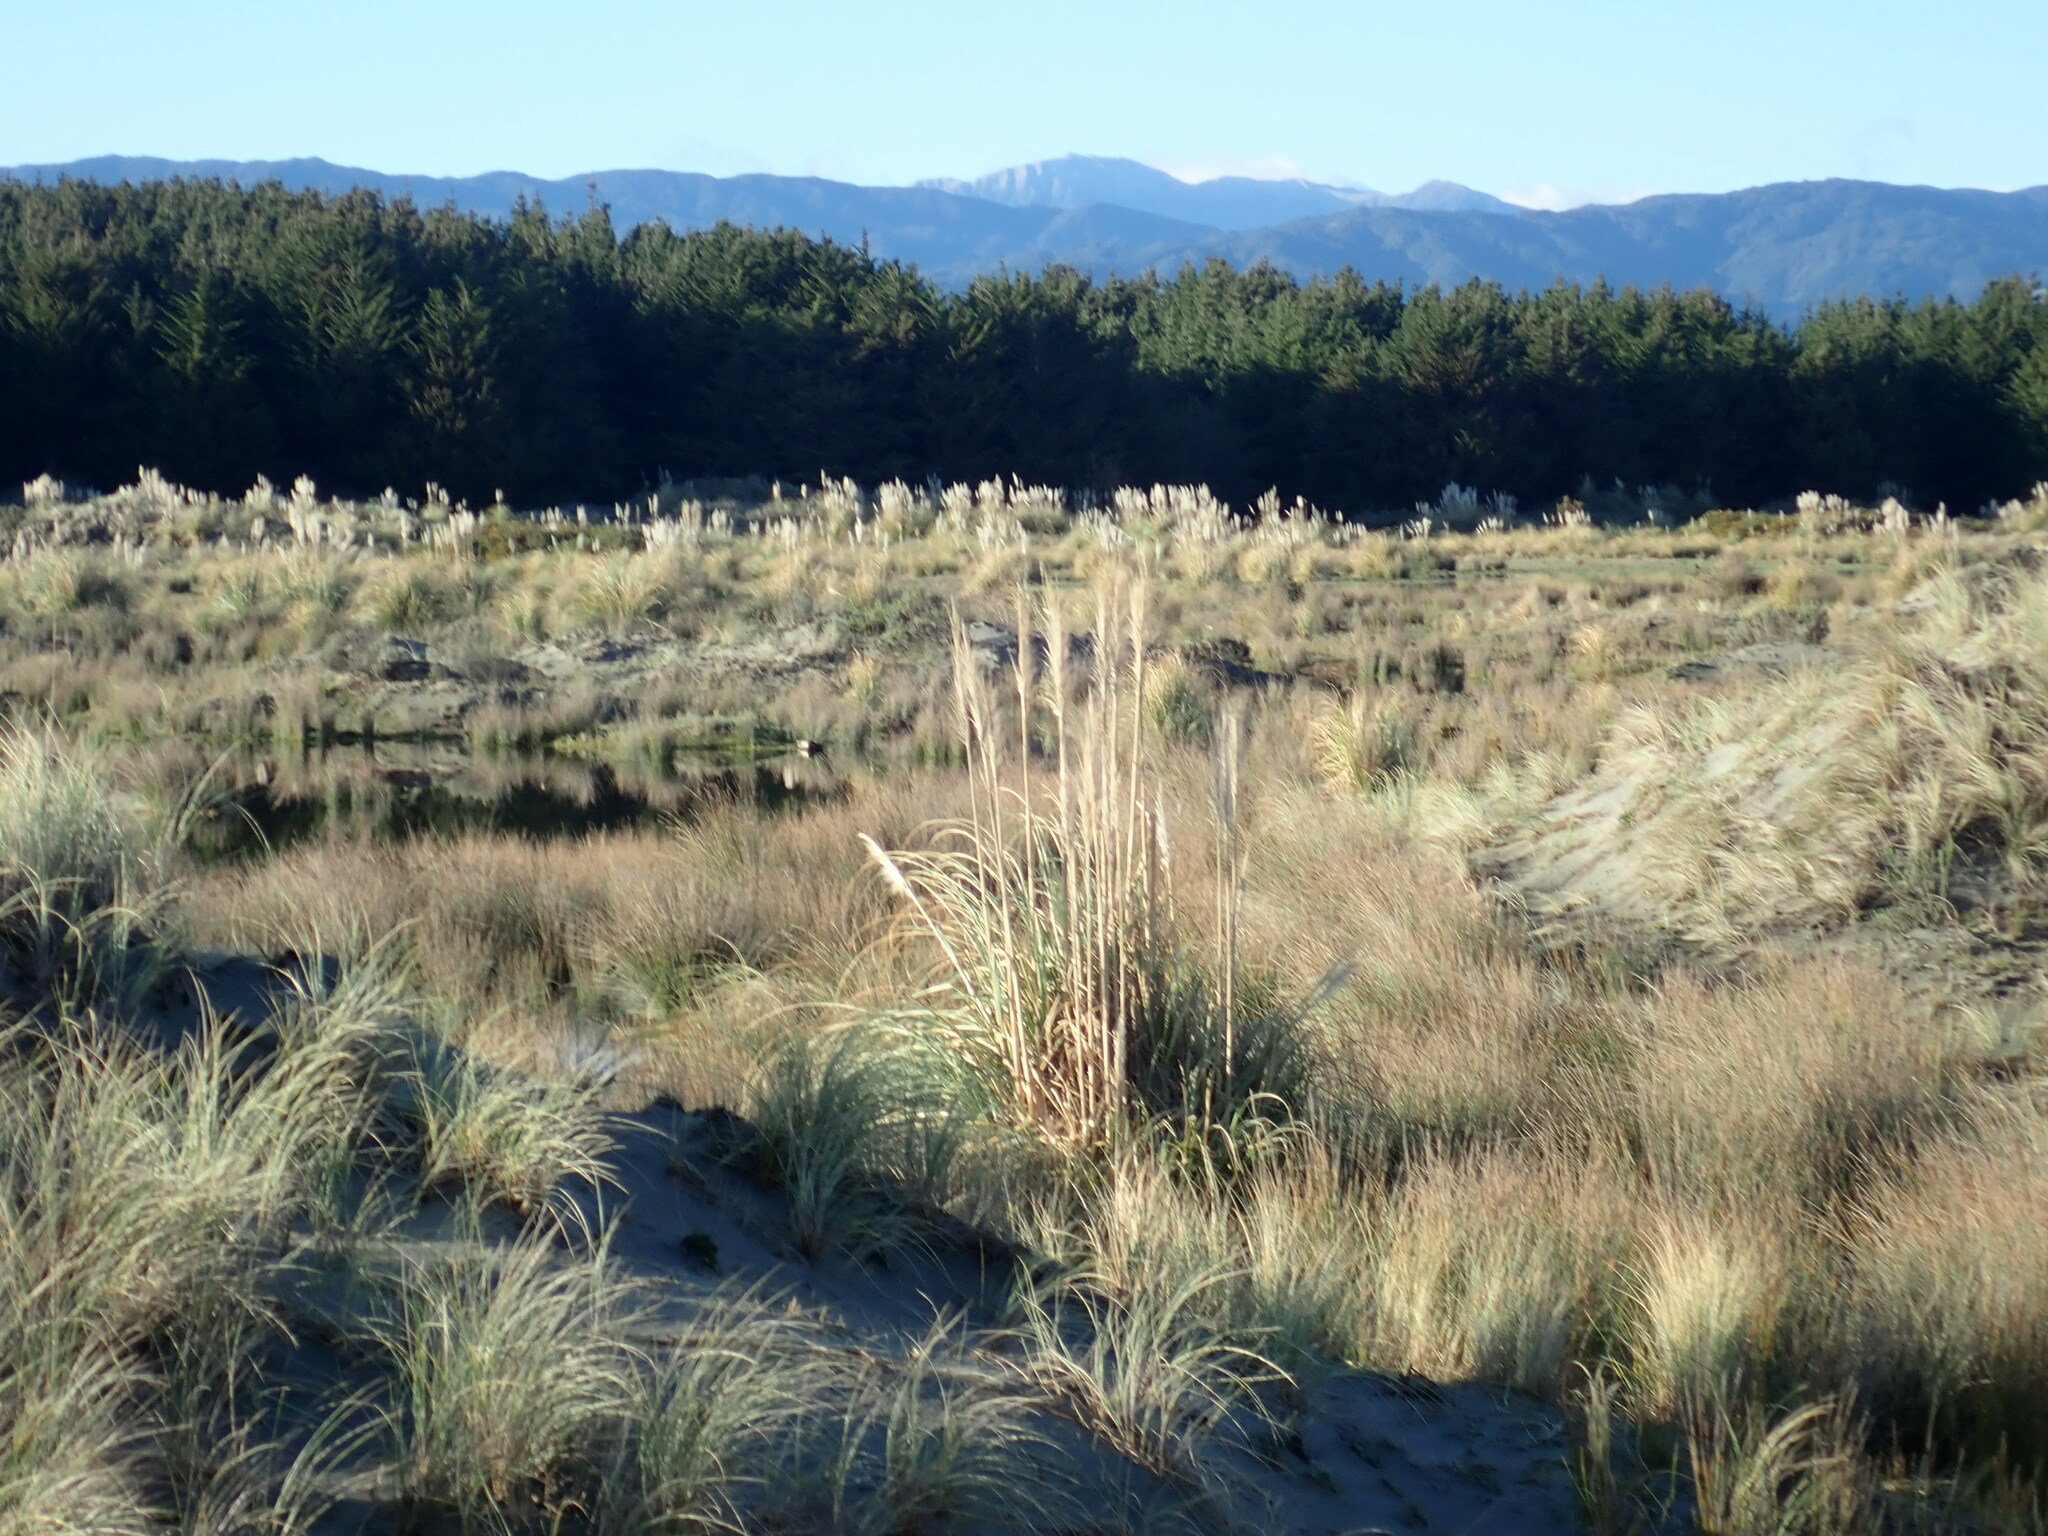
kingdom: Plantae
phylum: Tracheophyta
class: Liliopsida
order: Poales
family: Poaceae
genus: Cortaderia
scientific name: Cortaderia selloana
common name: Uruguayan pampas grass
